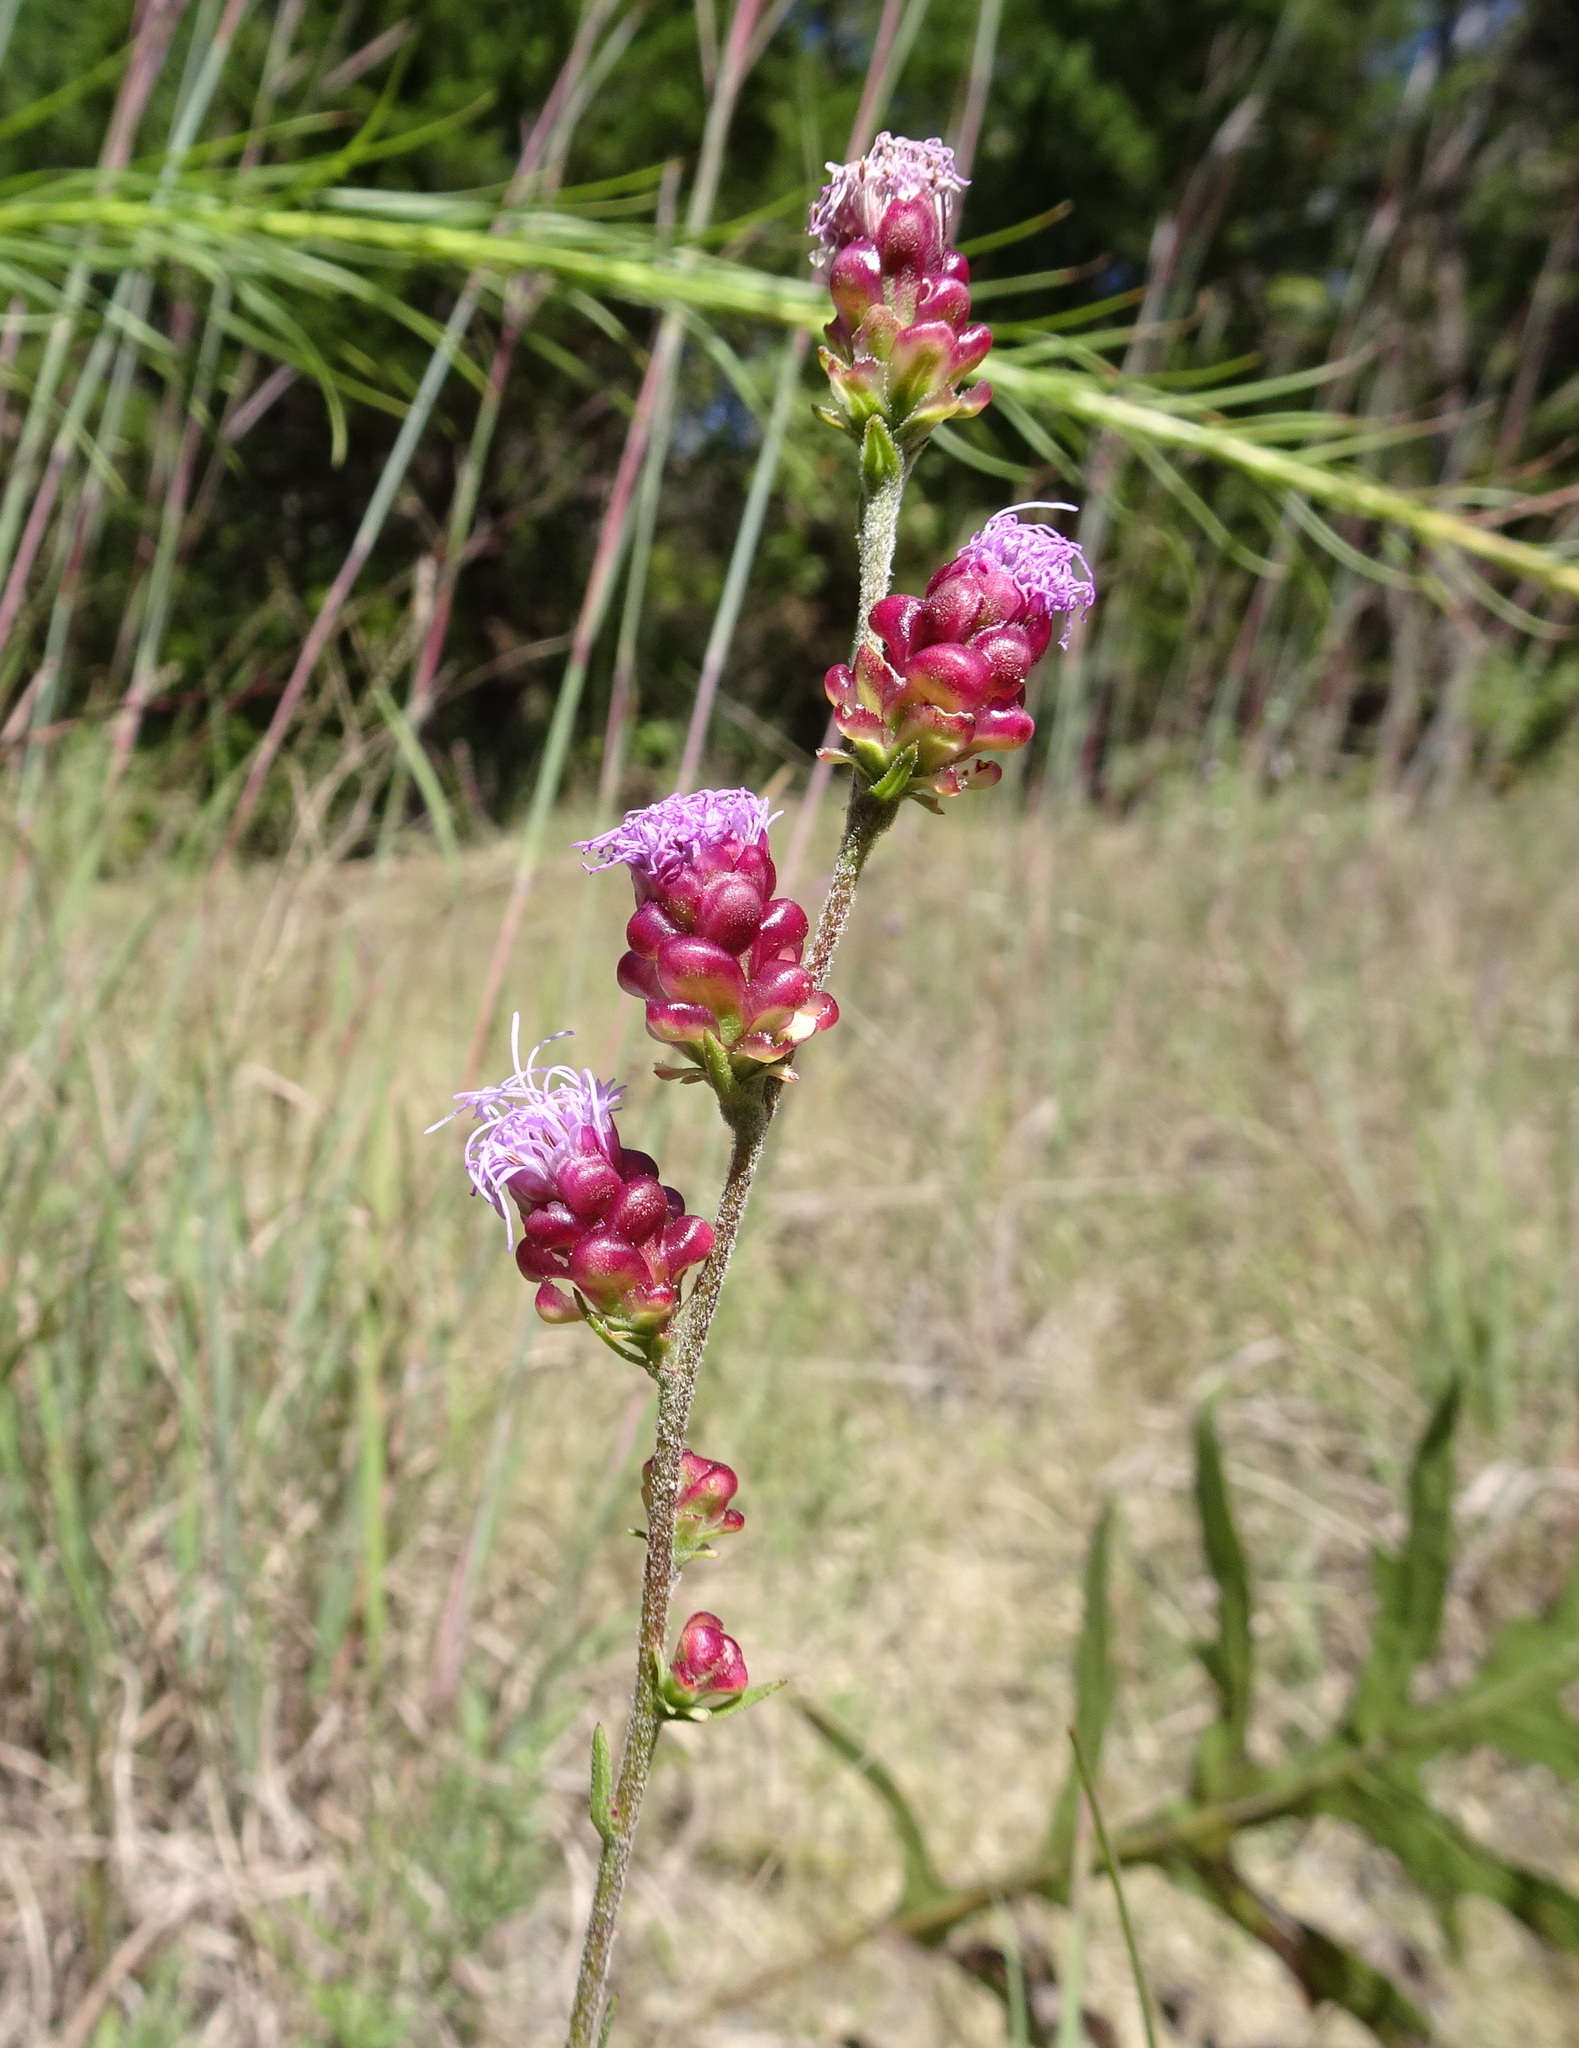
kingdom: Plantae
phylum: Tracheophyta
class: Magnoliopsida
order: Asterales
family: Asteraceae
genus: Liatris
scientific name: Liatris aspera
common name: Lacerate blazing-star
